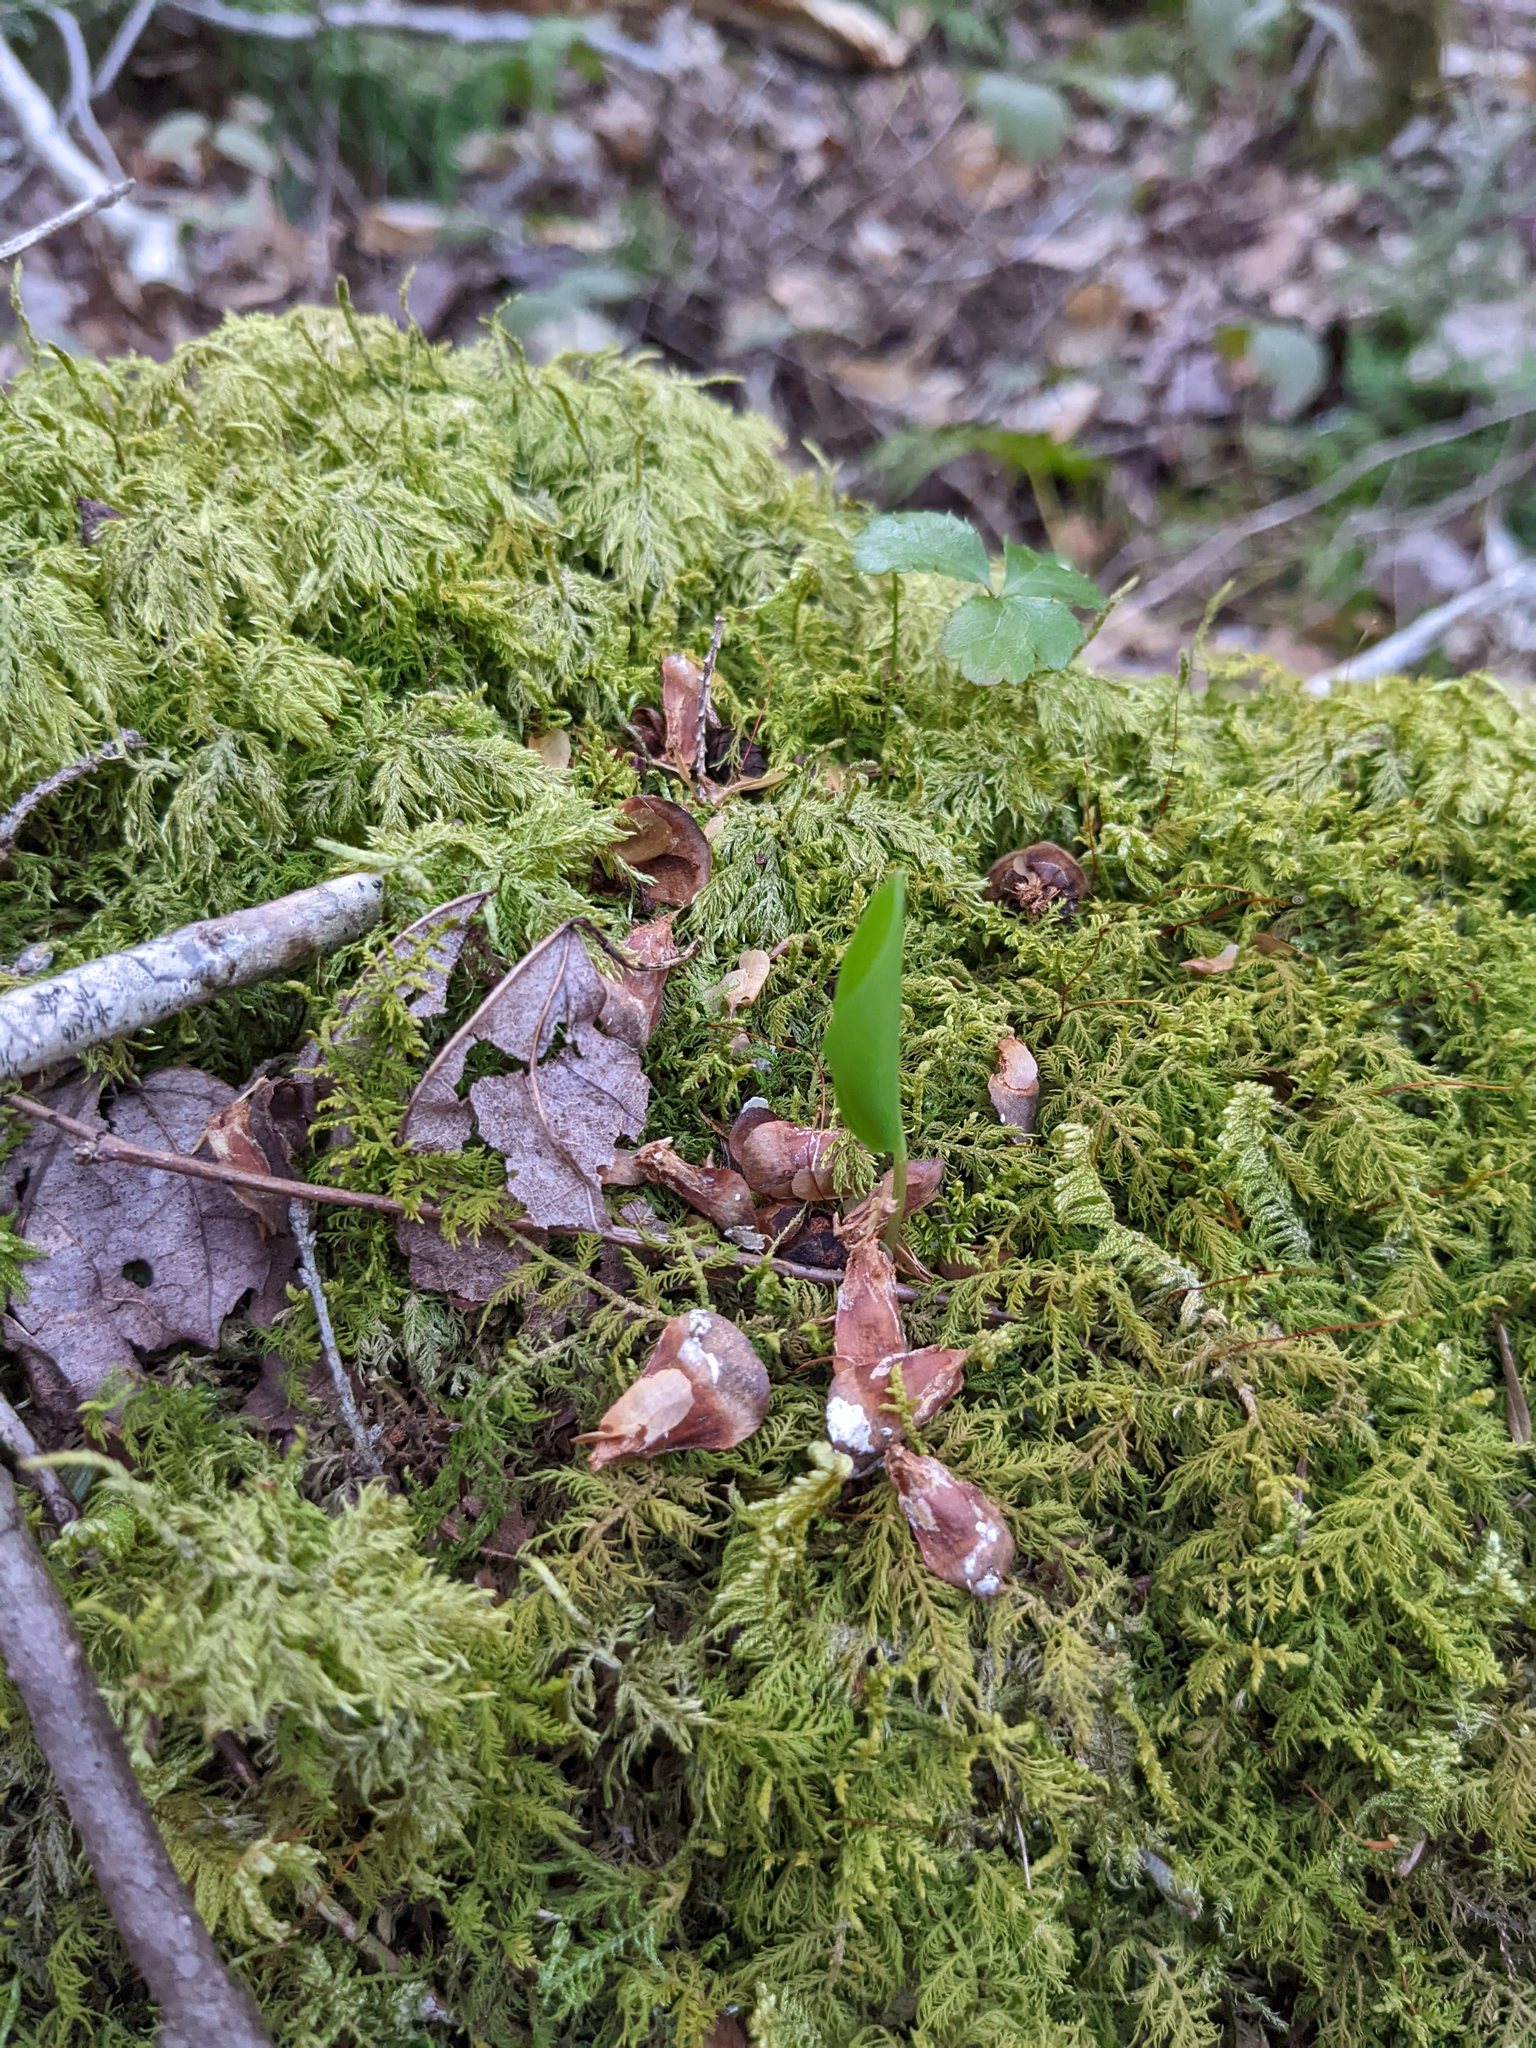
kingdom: Plantae
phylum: Tracheophyta
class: Liliopsida
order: Asparagales
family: Asparagaceae
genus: Maianthemum
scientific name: Maianthemum canadense
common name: False lily-of-the-valley
